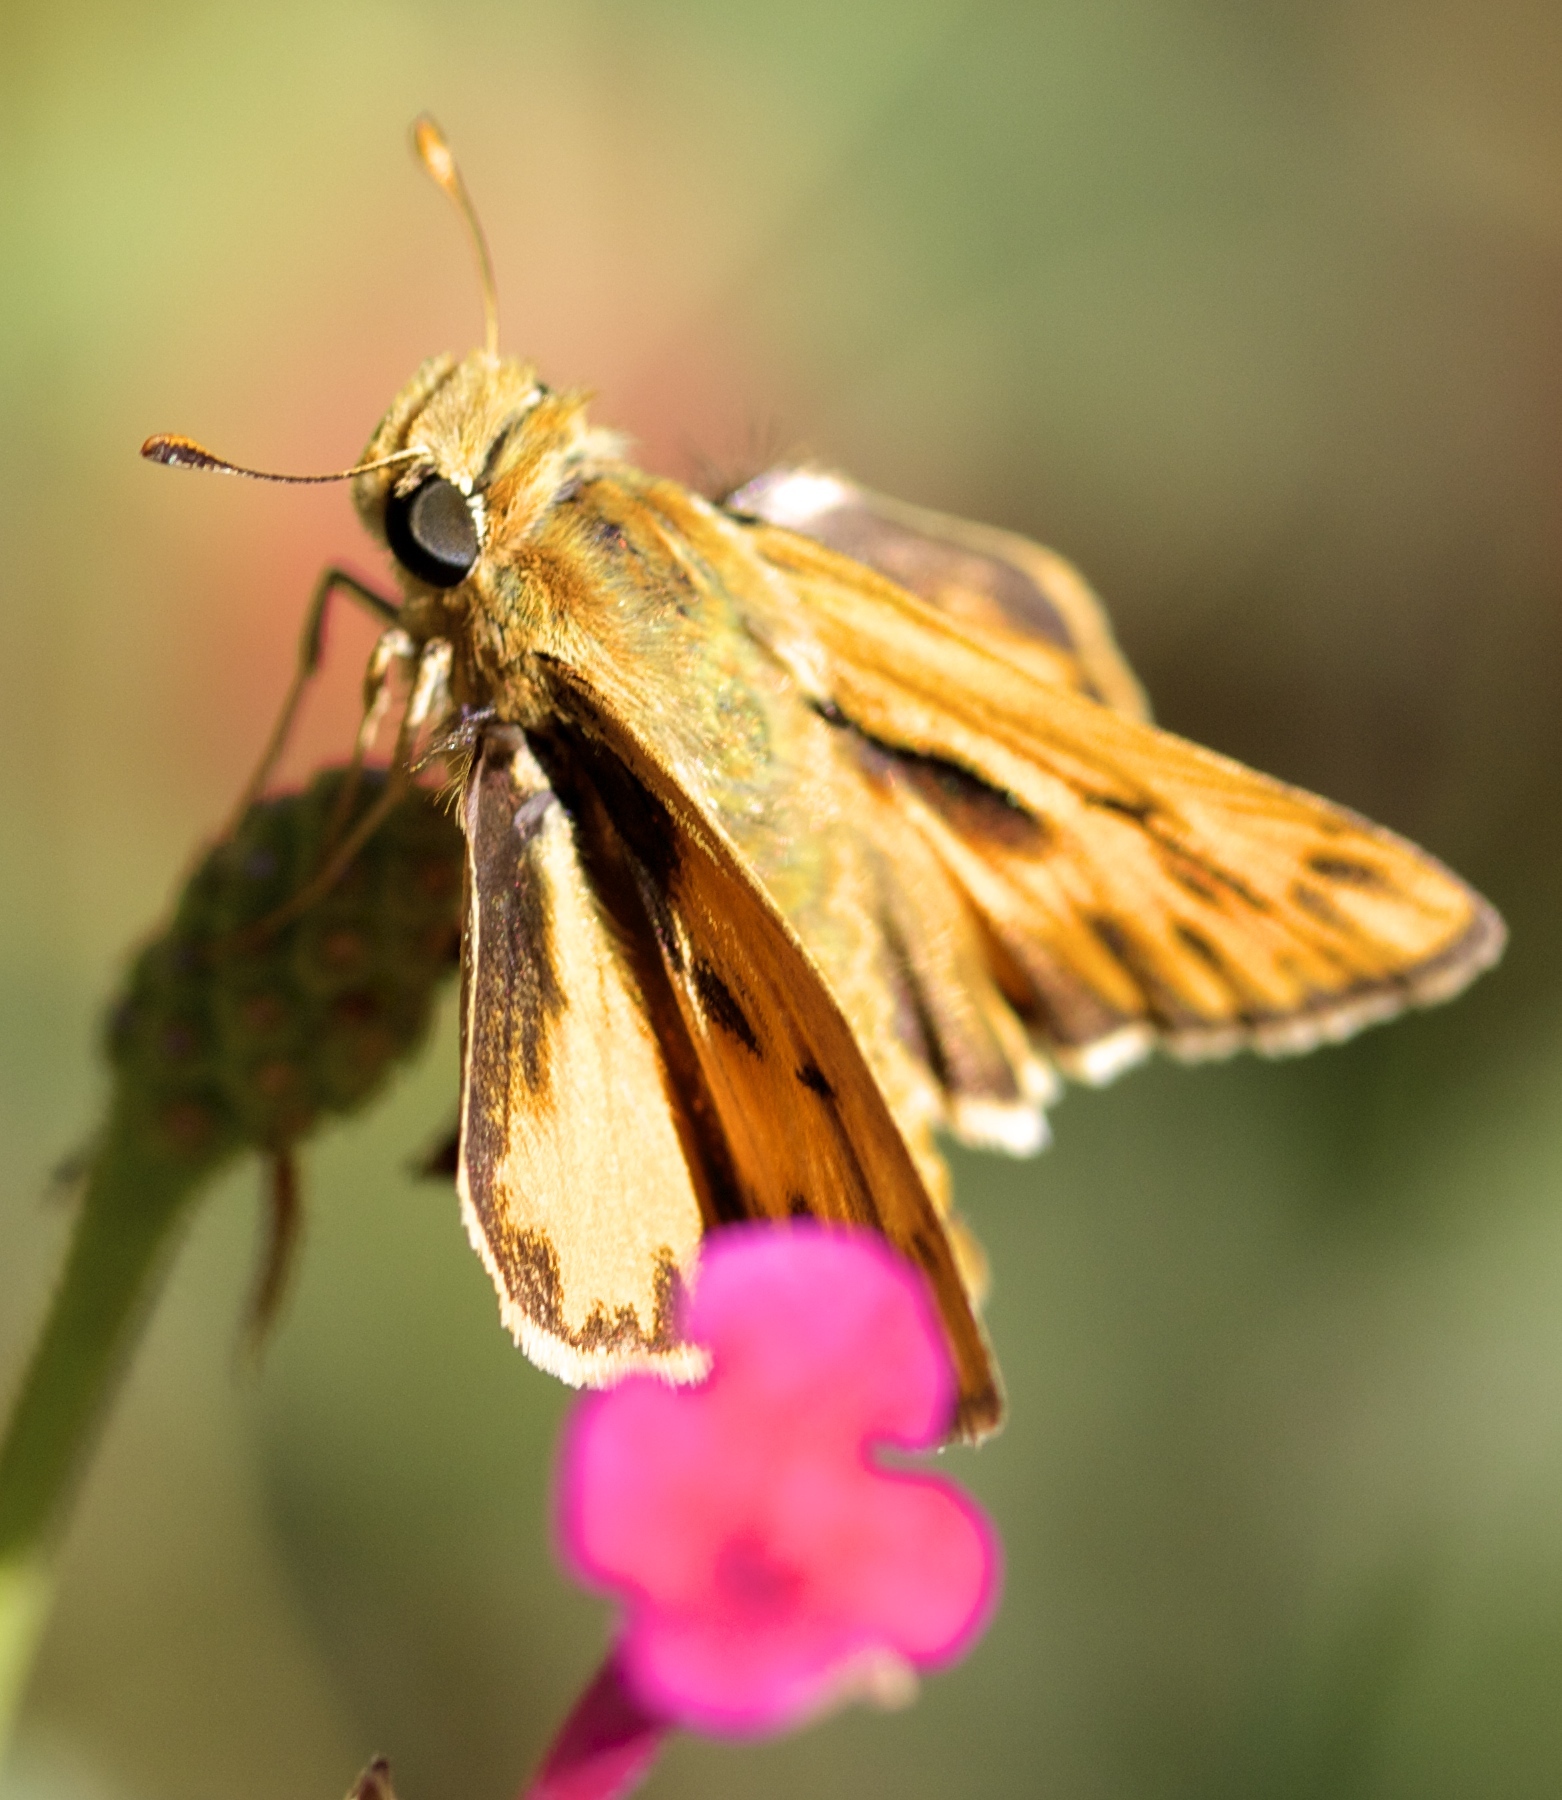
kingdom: Animalia
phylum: Arthropoda
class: Insecta
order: Lepidoptera
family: Hesperiidae
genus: Hylephila
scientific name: Hylephila phyleus
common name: Fiery skipper
